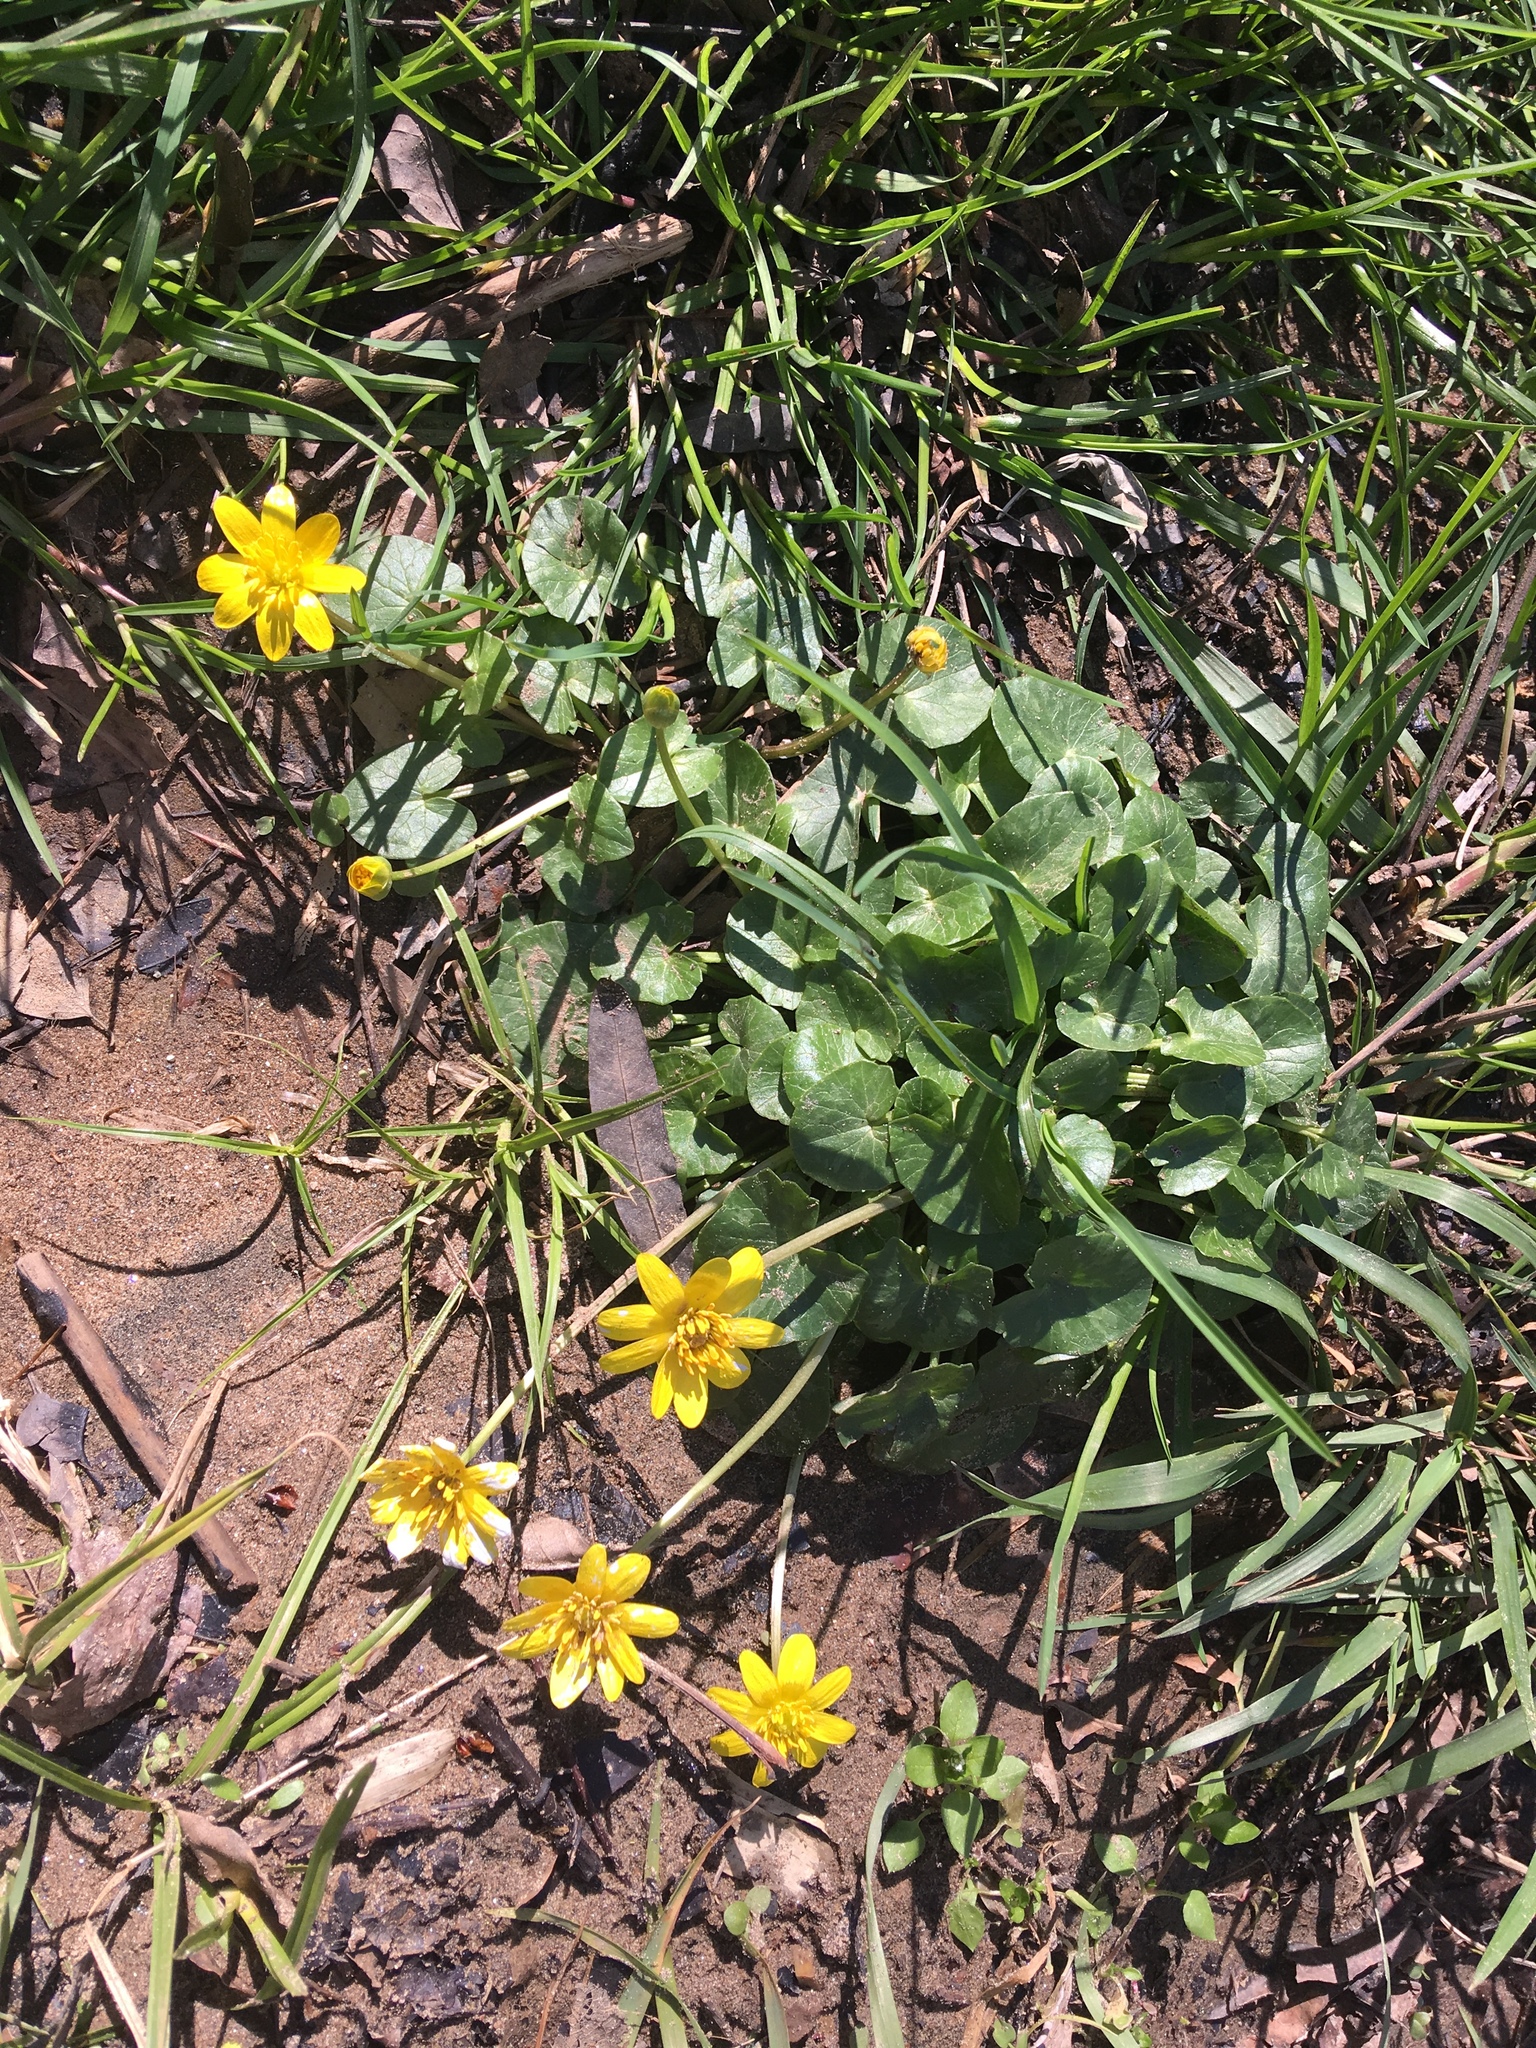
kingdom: Plantae
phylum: Tracheophyta
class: Magnoliopsida
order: Ranunculales
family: Ranunculaceae
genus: Ficaria
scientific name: Ficaria verna
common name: Lesser celandine
